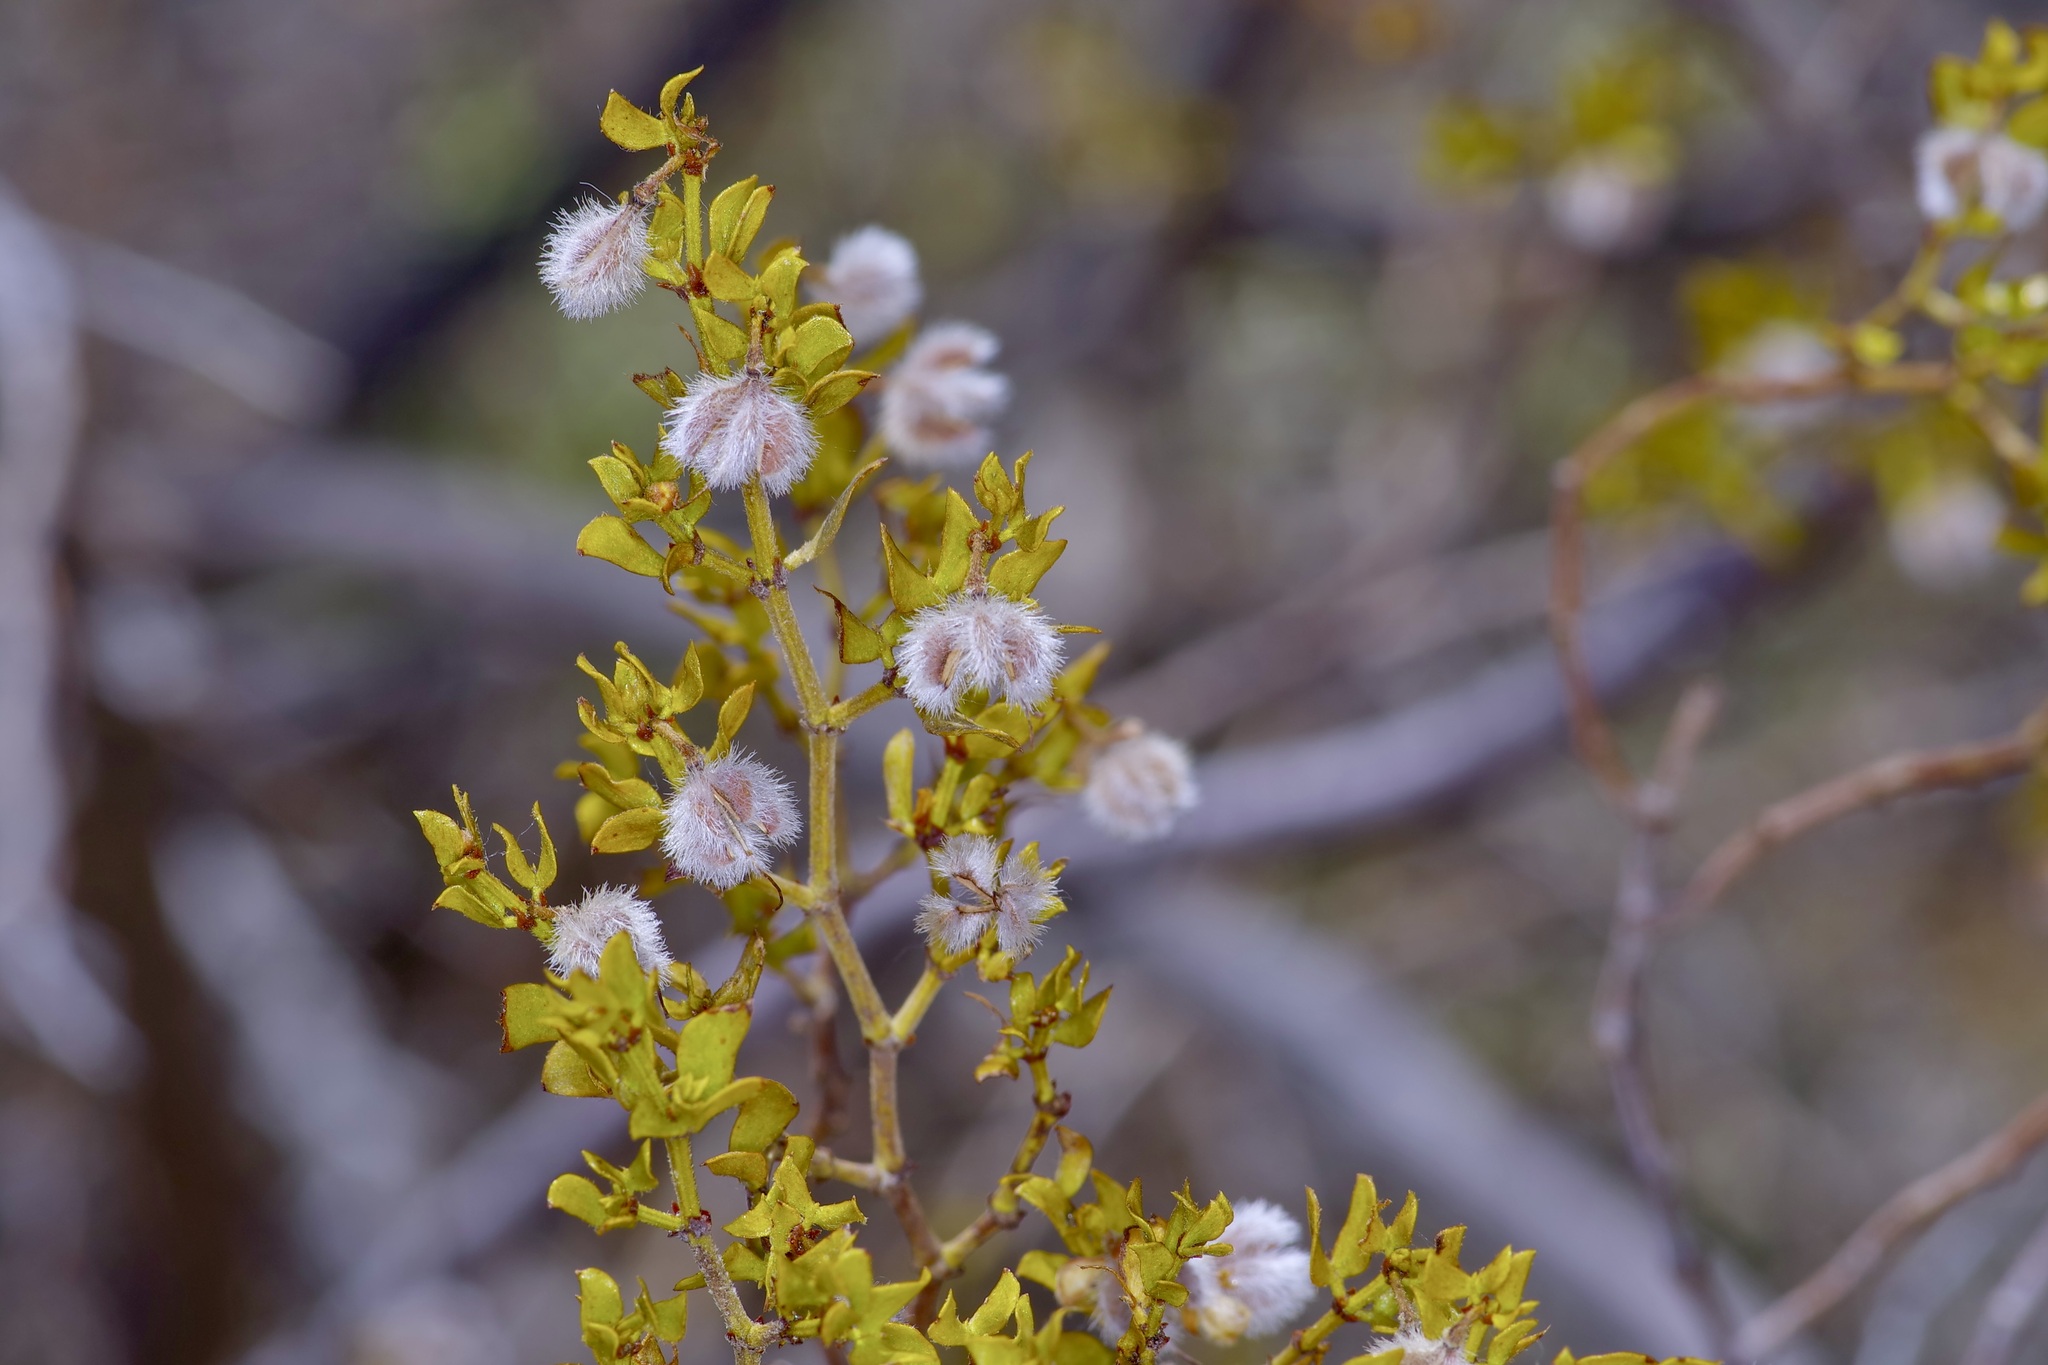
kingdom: Plantae
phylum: Tracheophyta
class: Magnoliopsida
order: Zygophyllales
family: Zygophyllaceae
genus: Larrea
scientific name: Larrea tridentata
